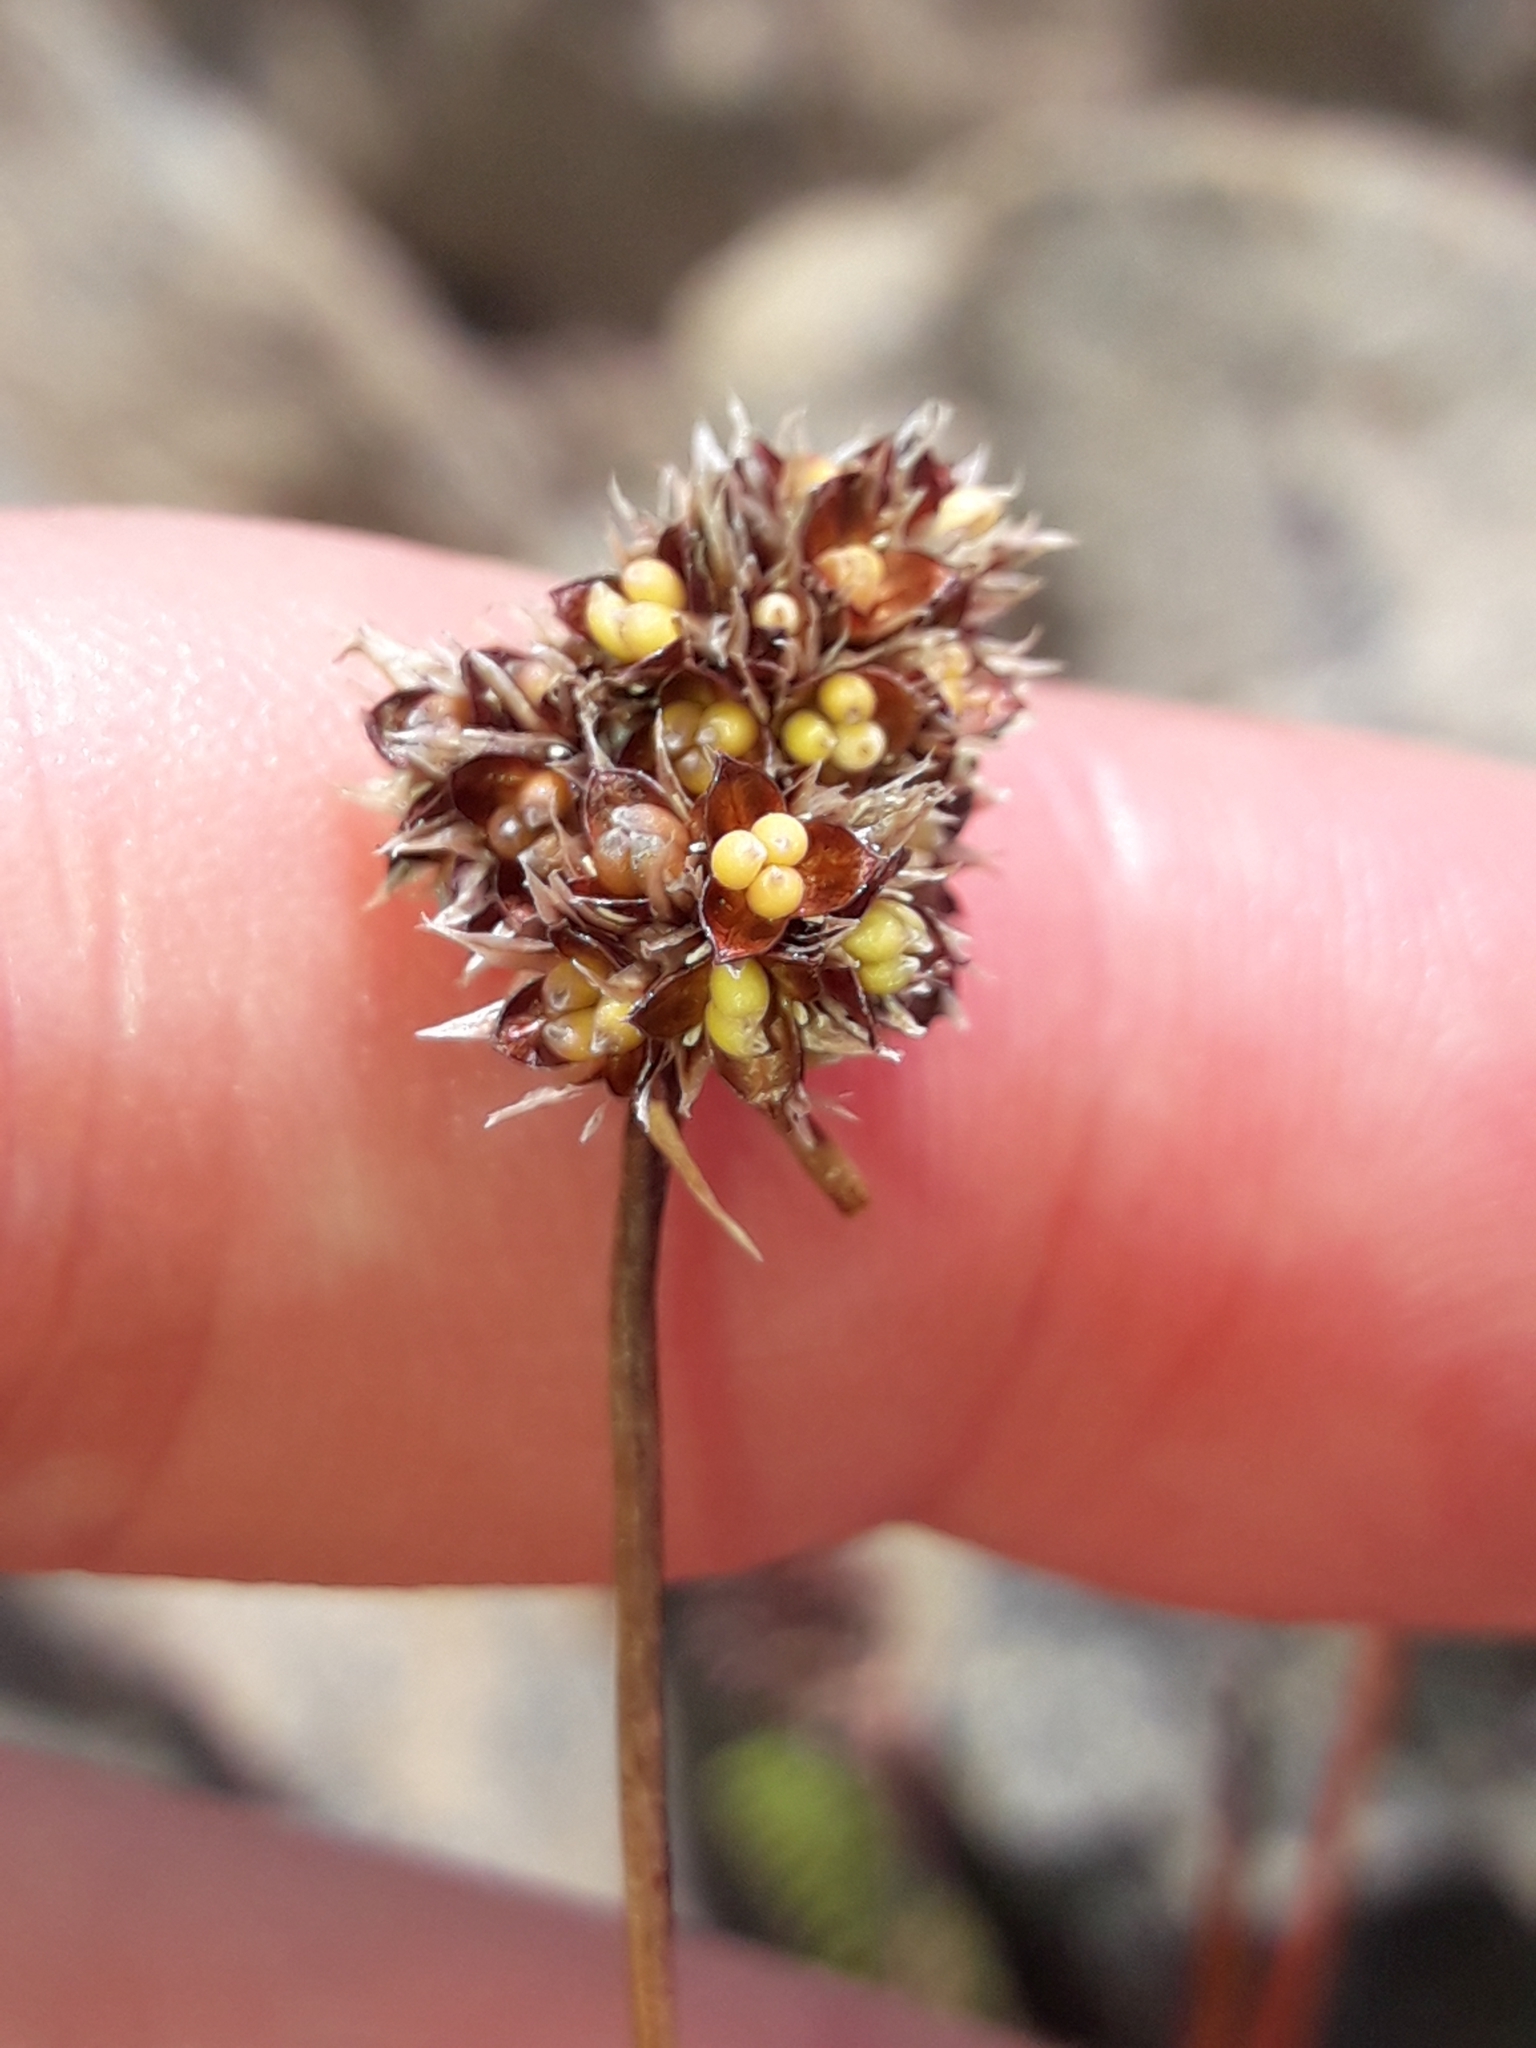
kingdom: Plantae
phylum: Tracheophyta
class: Liliopsida
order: Poales
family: Juncaceae
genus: Luzula
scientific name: Luzula rufa
